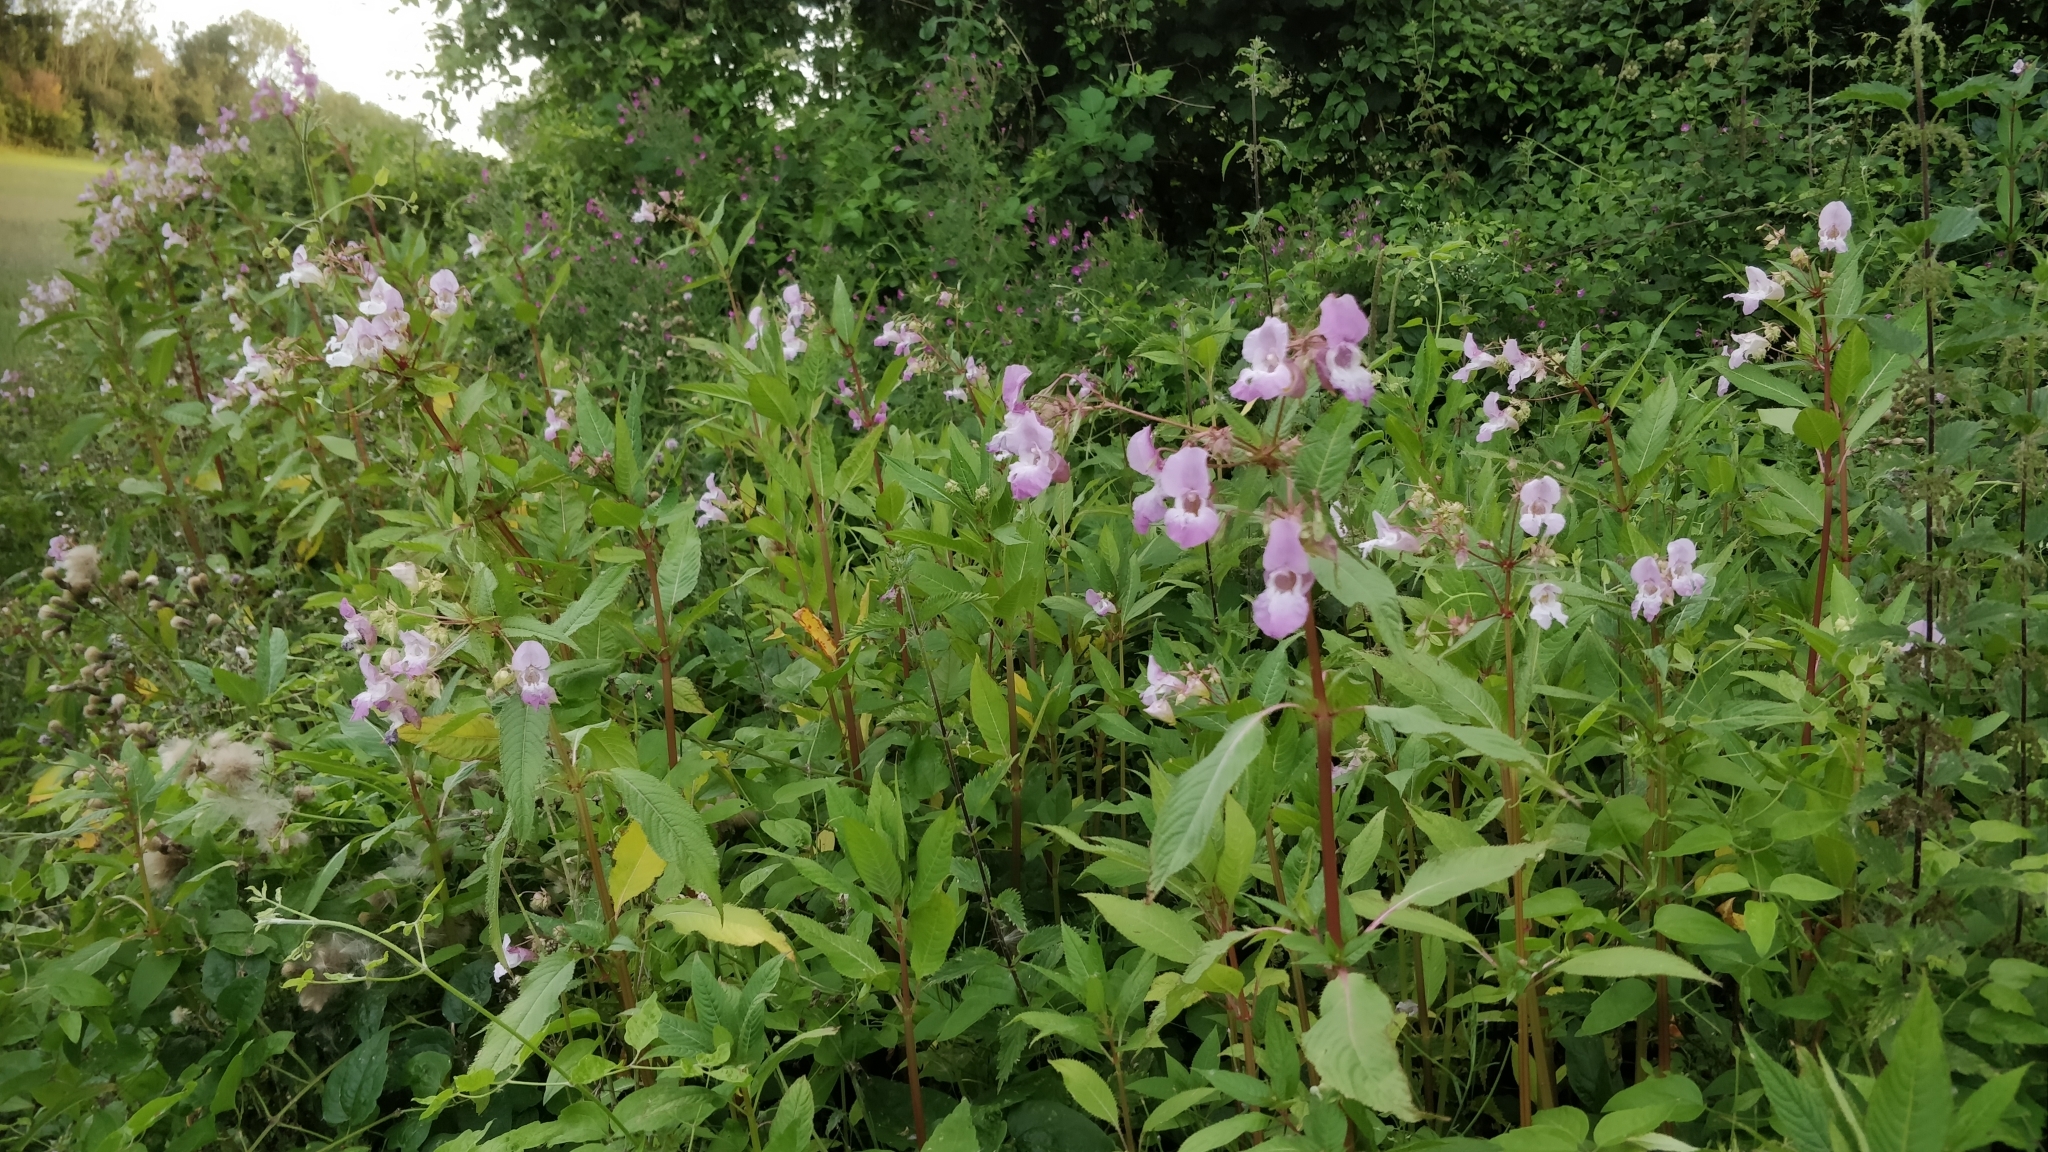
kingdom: Plantae
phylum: Tracheophyta
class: Magnoliopsida
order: Ericales
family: Balsaminaceae
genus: Impatiens
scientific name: Impatiens glandulifera
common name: Himalayan balsam
